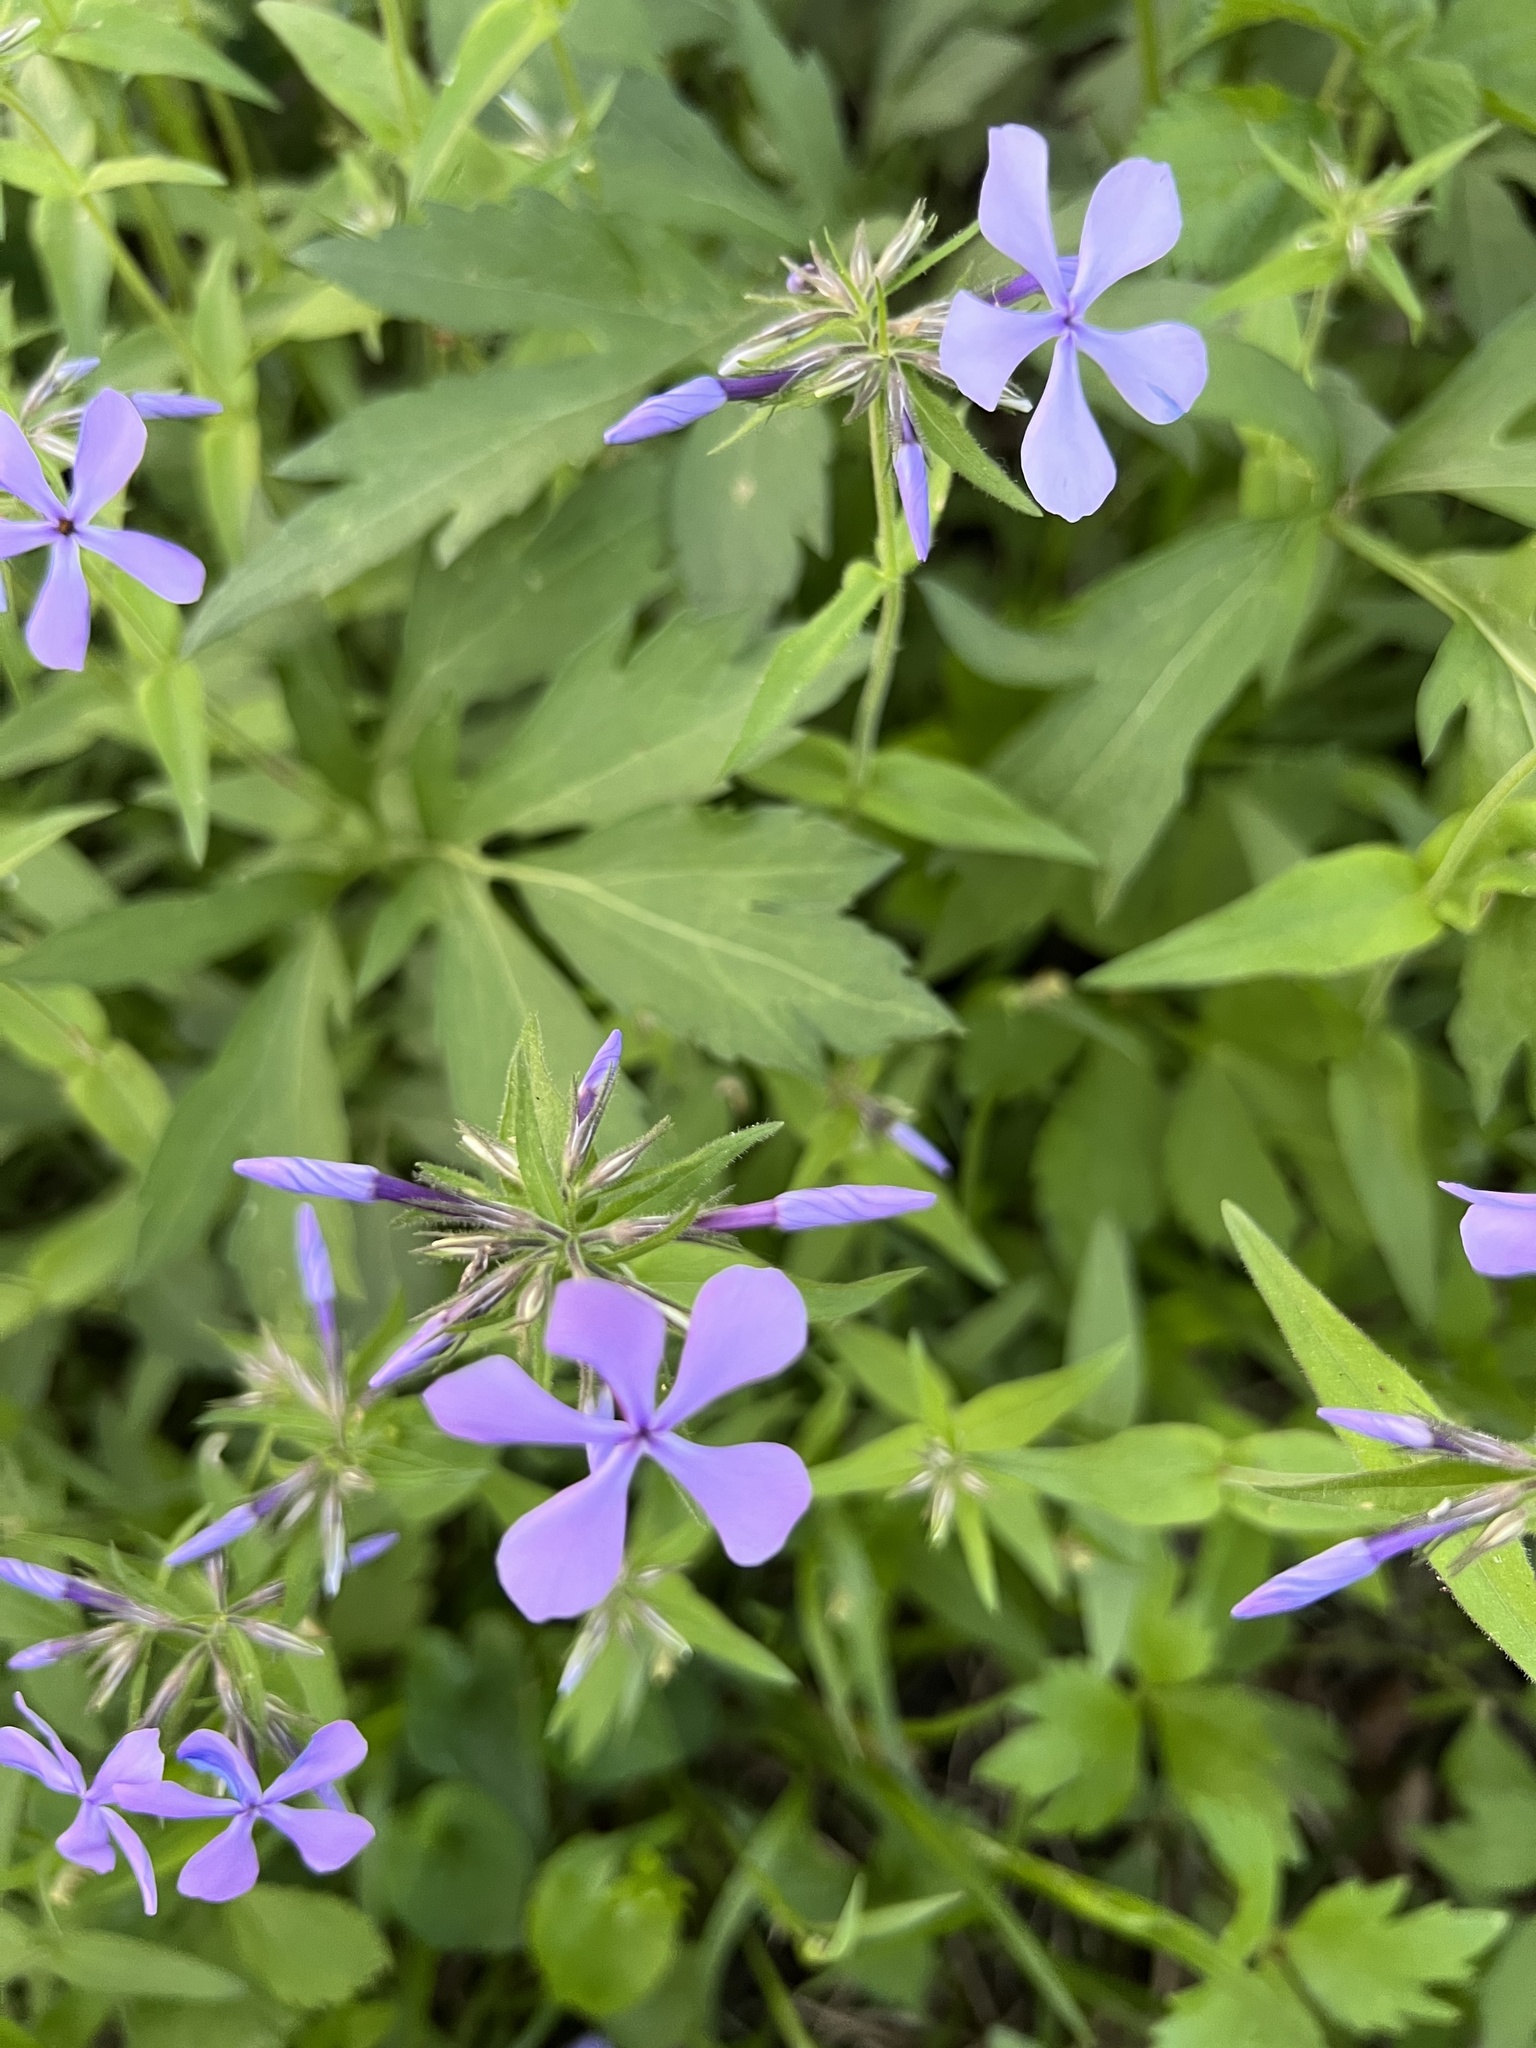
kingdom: Plantae
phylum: Tracheophyta
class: Magnoliopsida
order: Ericales
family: Polemoniaceae
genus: Phlox
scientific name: Phlox divaricata
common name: Blue phlox
